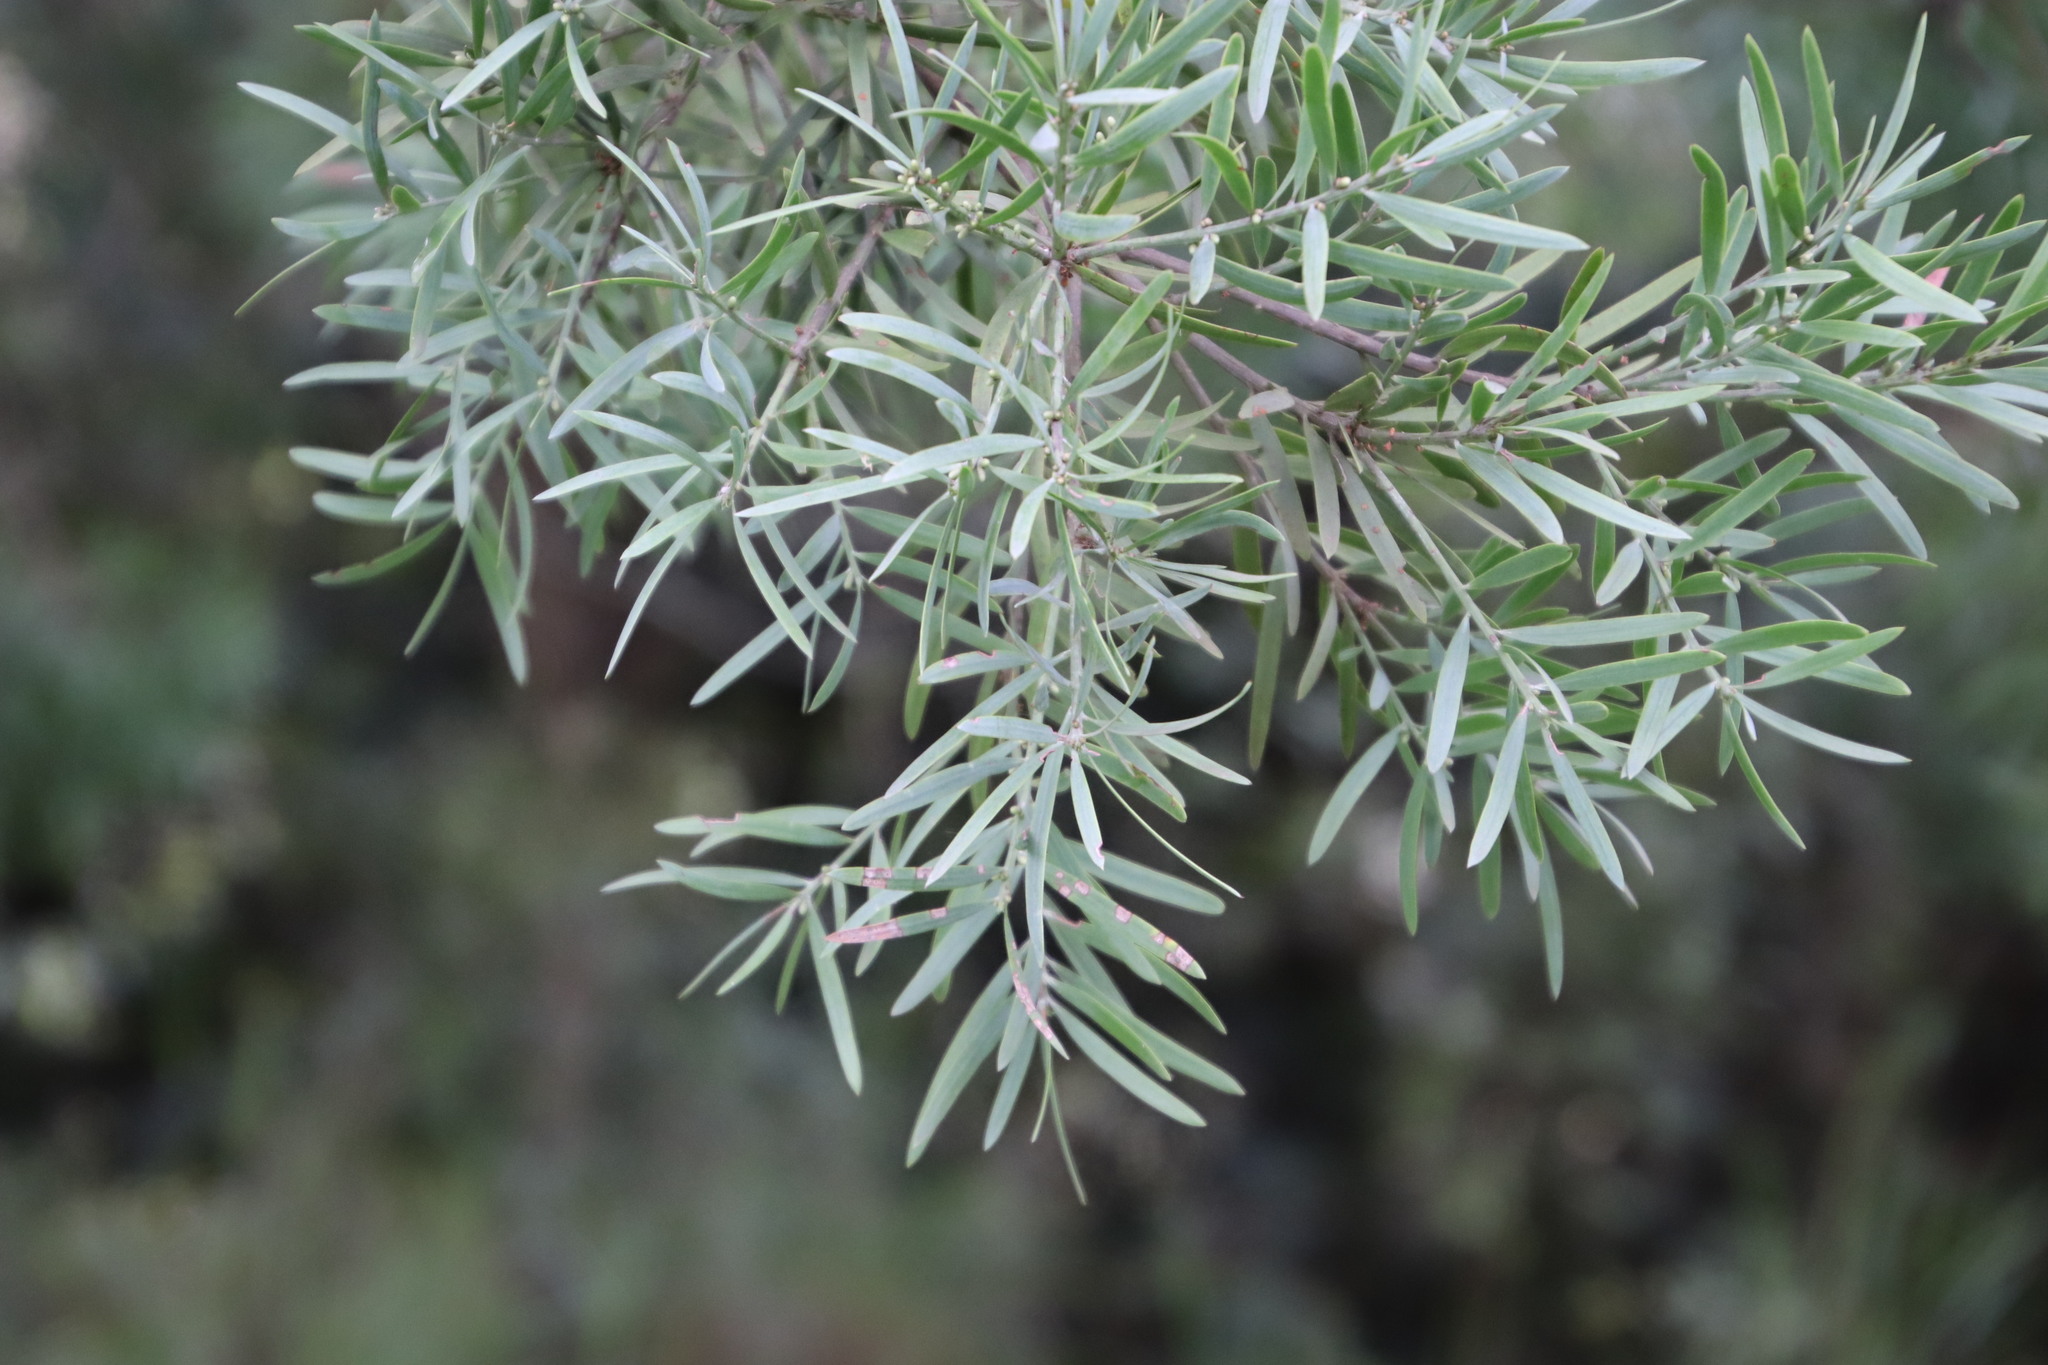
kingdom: Plantae
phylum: Tracheophyta
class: Pinopsida
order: Pinales
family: Podocarpaceae
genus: Afrocarpus
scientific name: Afrocarpus falcatus
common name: Bastard yellowwood
